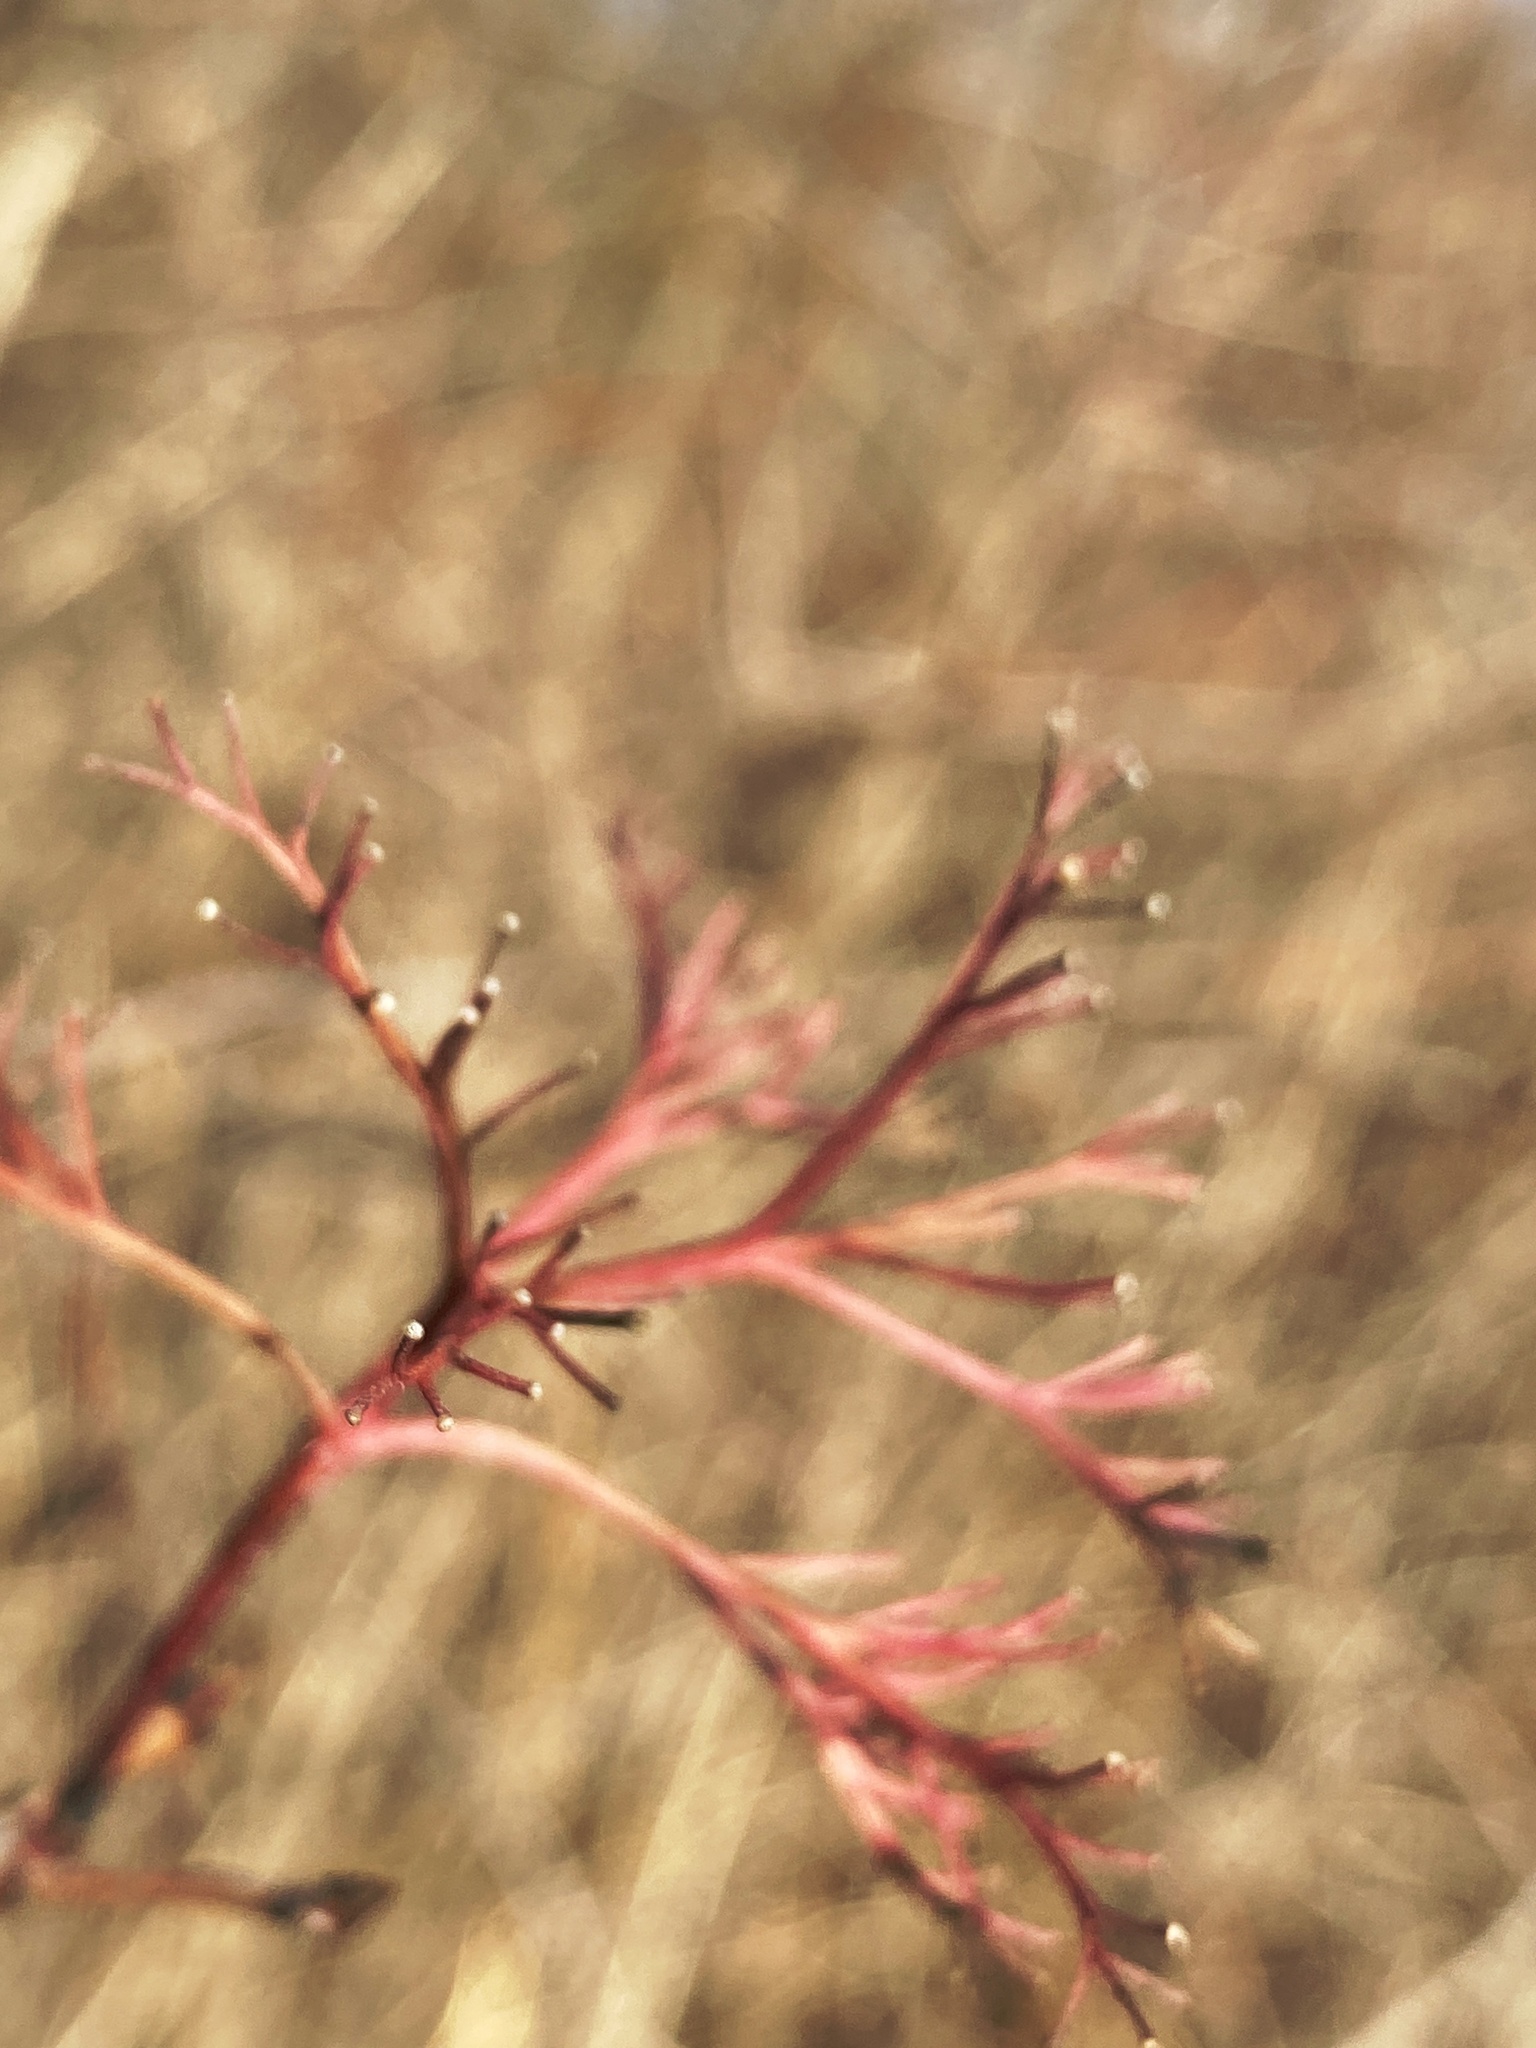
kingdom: Plantae
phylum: Tracheophyta
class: Magnoliopsida
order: Cornales
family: Cornaceae
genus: Cornus
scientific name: Cornus racemosa
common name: Panicled dogwood
